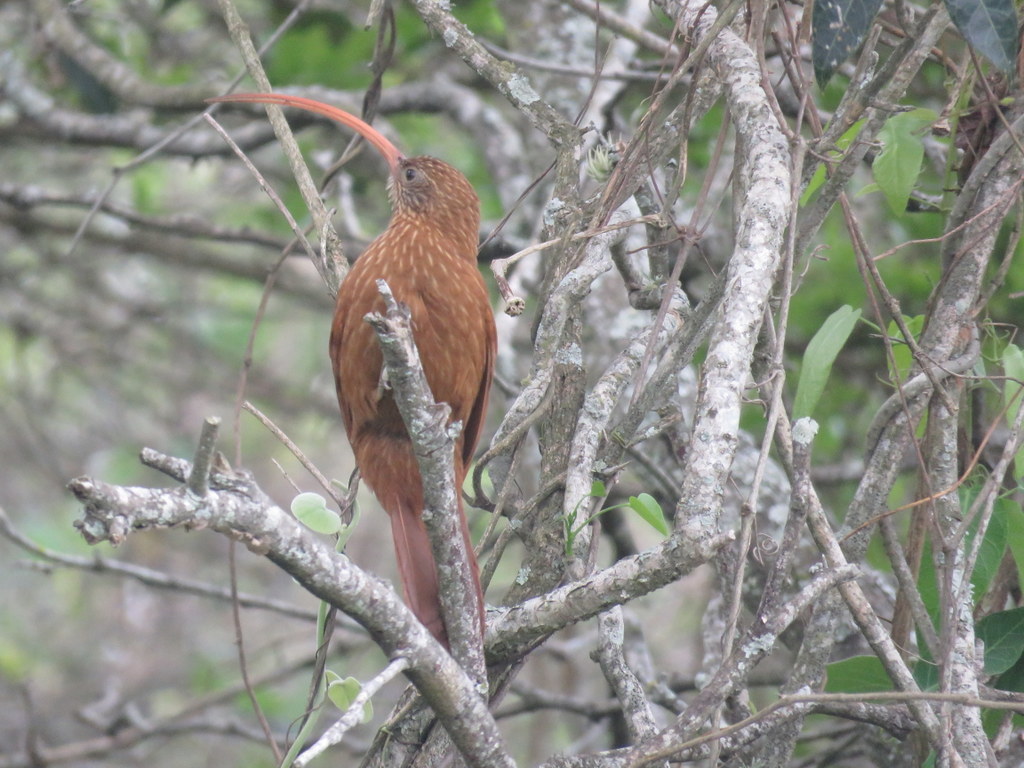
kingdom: Animalia
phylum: Chordata
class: Aves
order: Passeriformes
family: Furnariidae
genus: Campylorhamphus
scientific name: Campylorhamphus trochilirostris
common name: Red-billed scythebill
